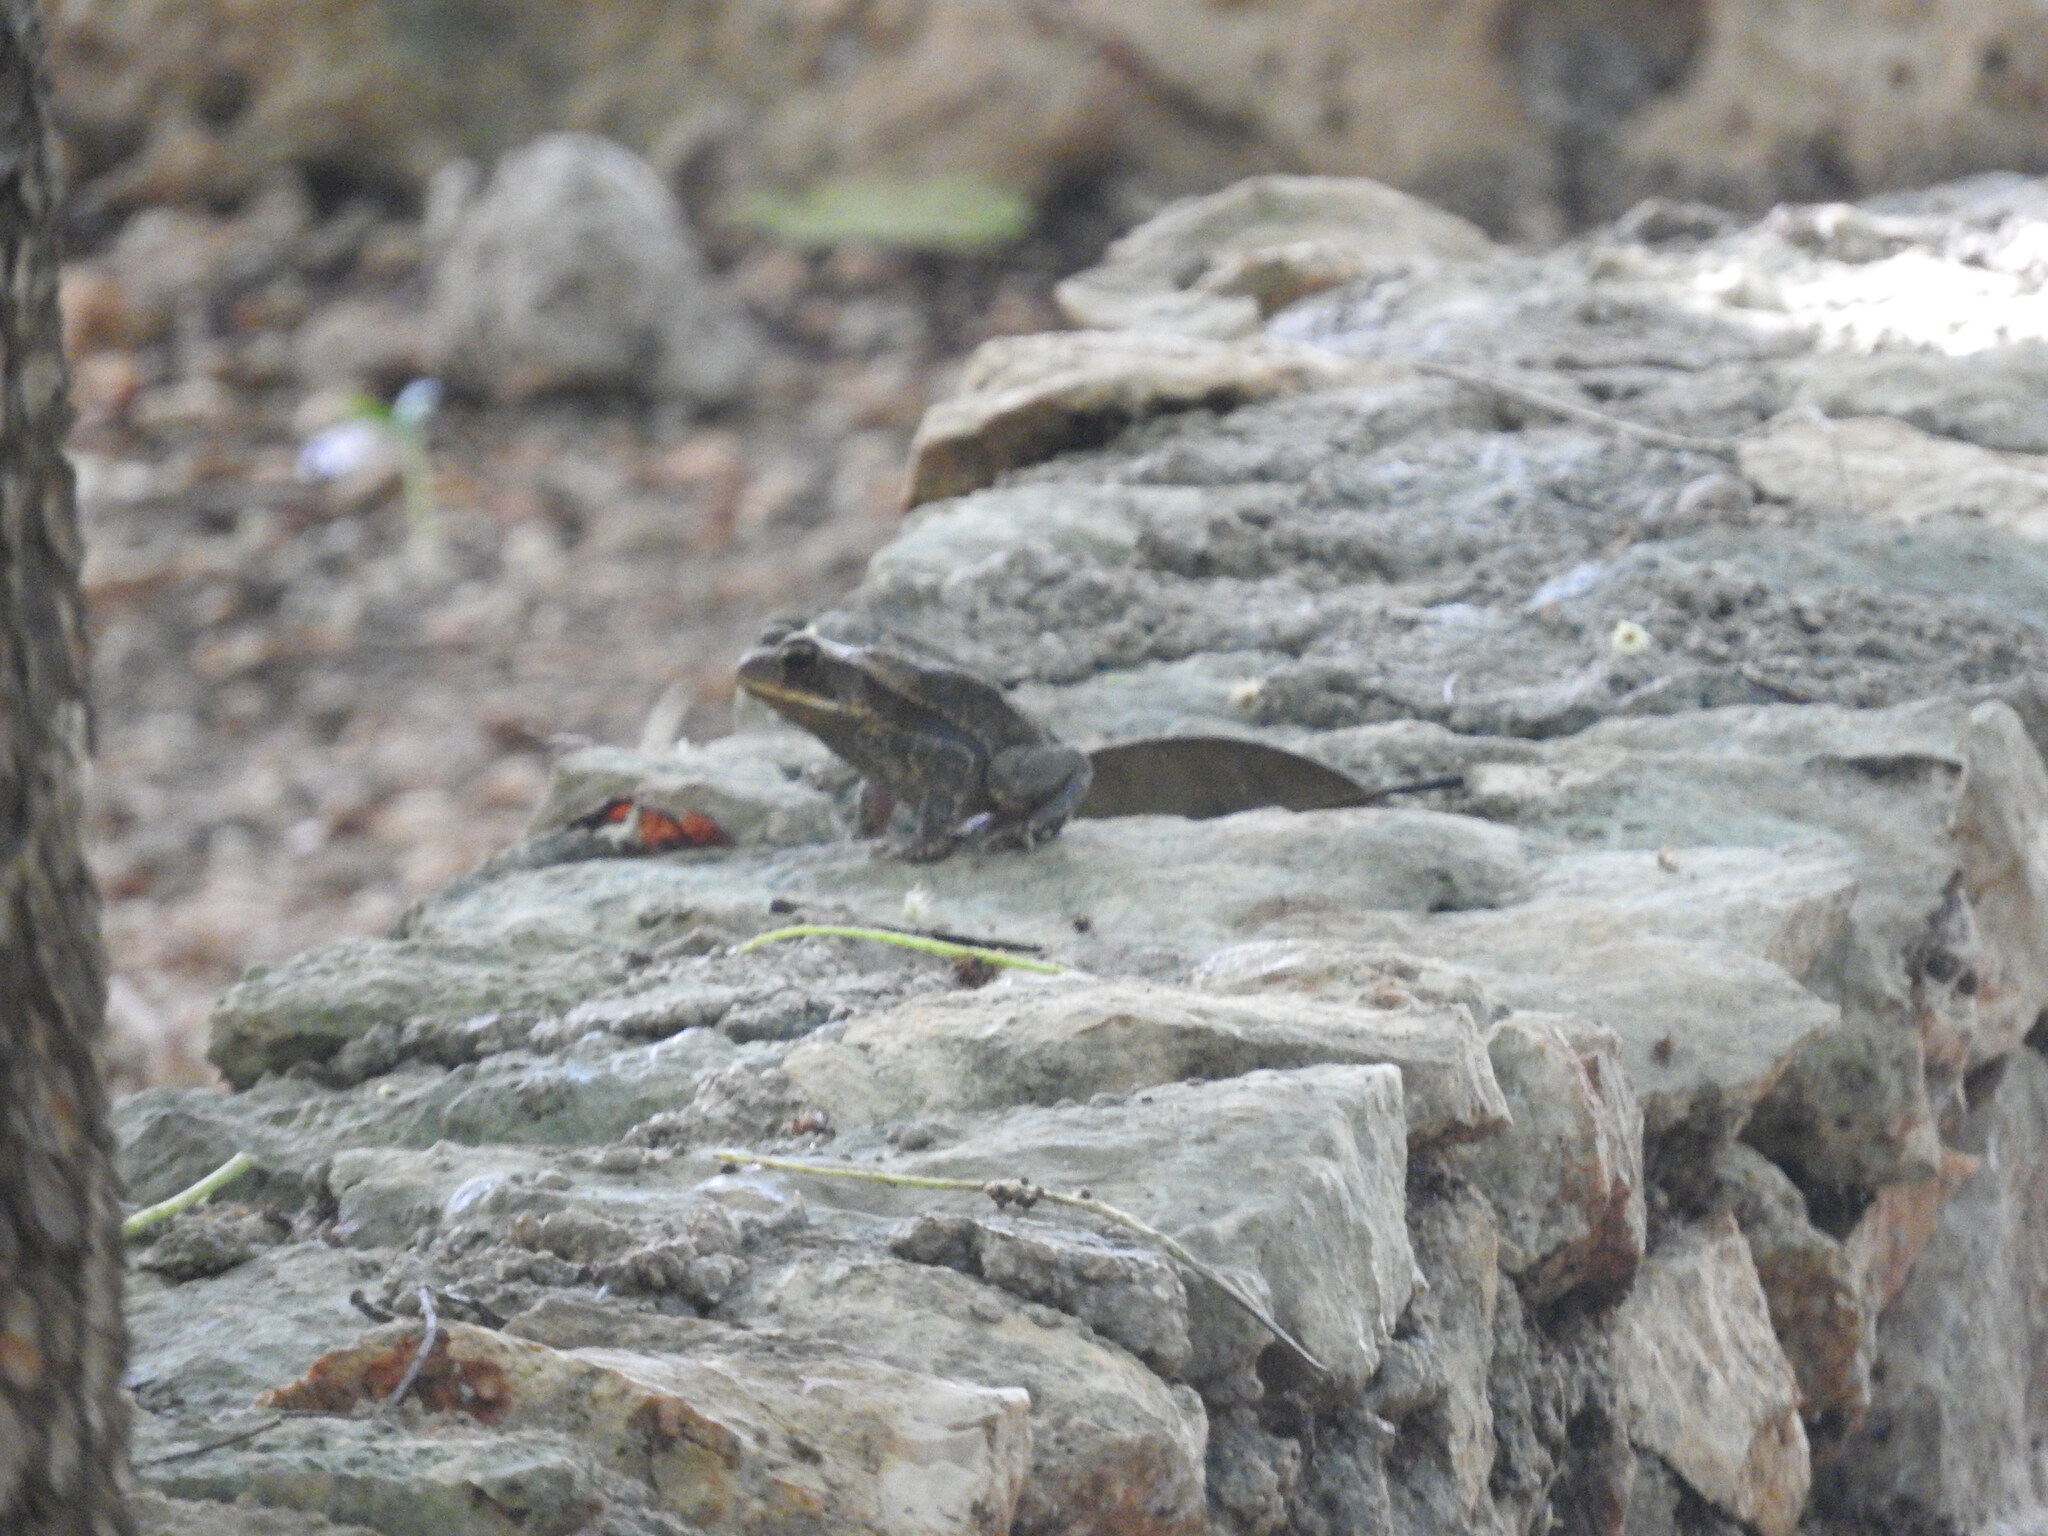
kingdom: Animalia
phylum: Chordata
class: Amphibia
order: Anura
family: Bufonidae
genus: Incilius
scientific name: Incilius valliceps
